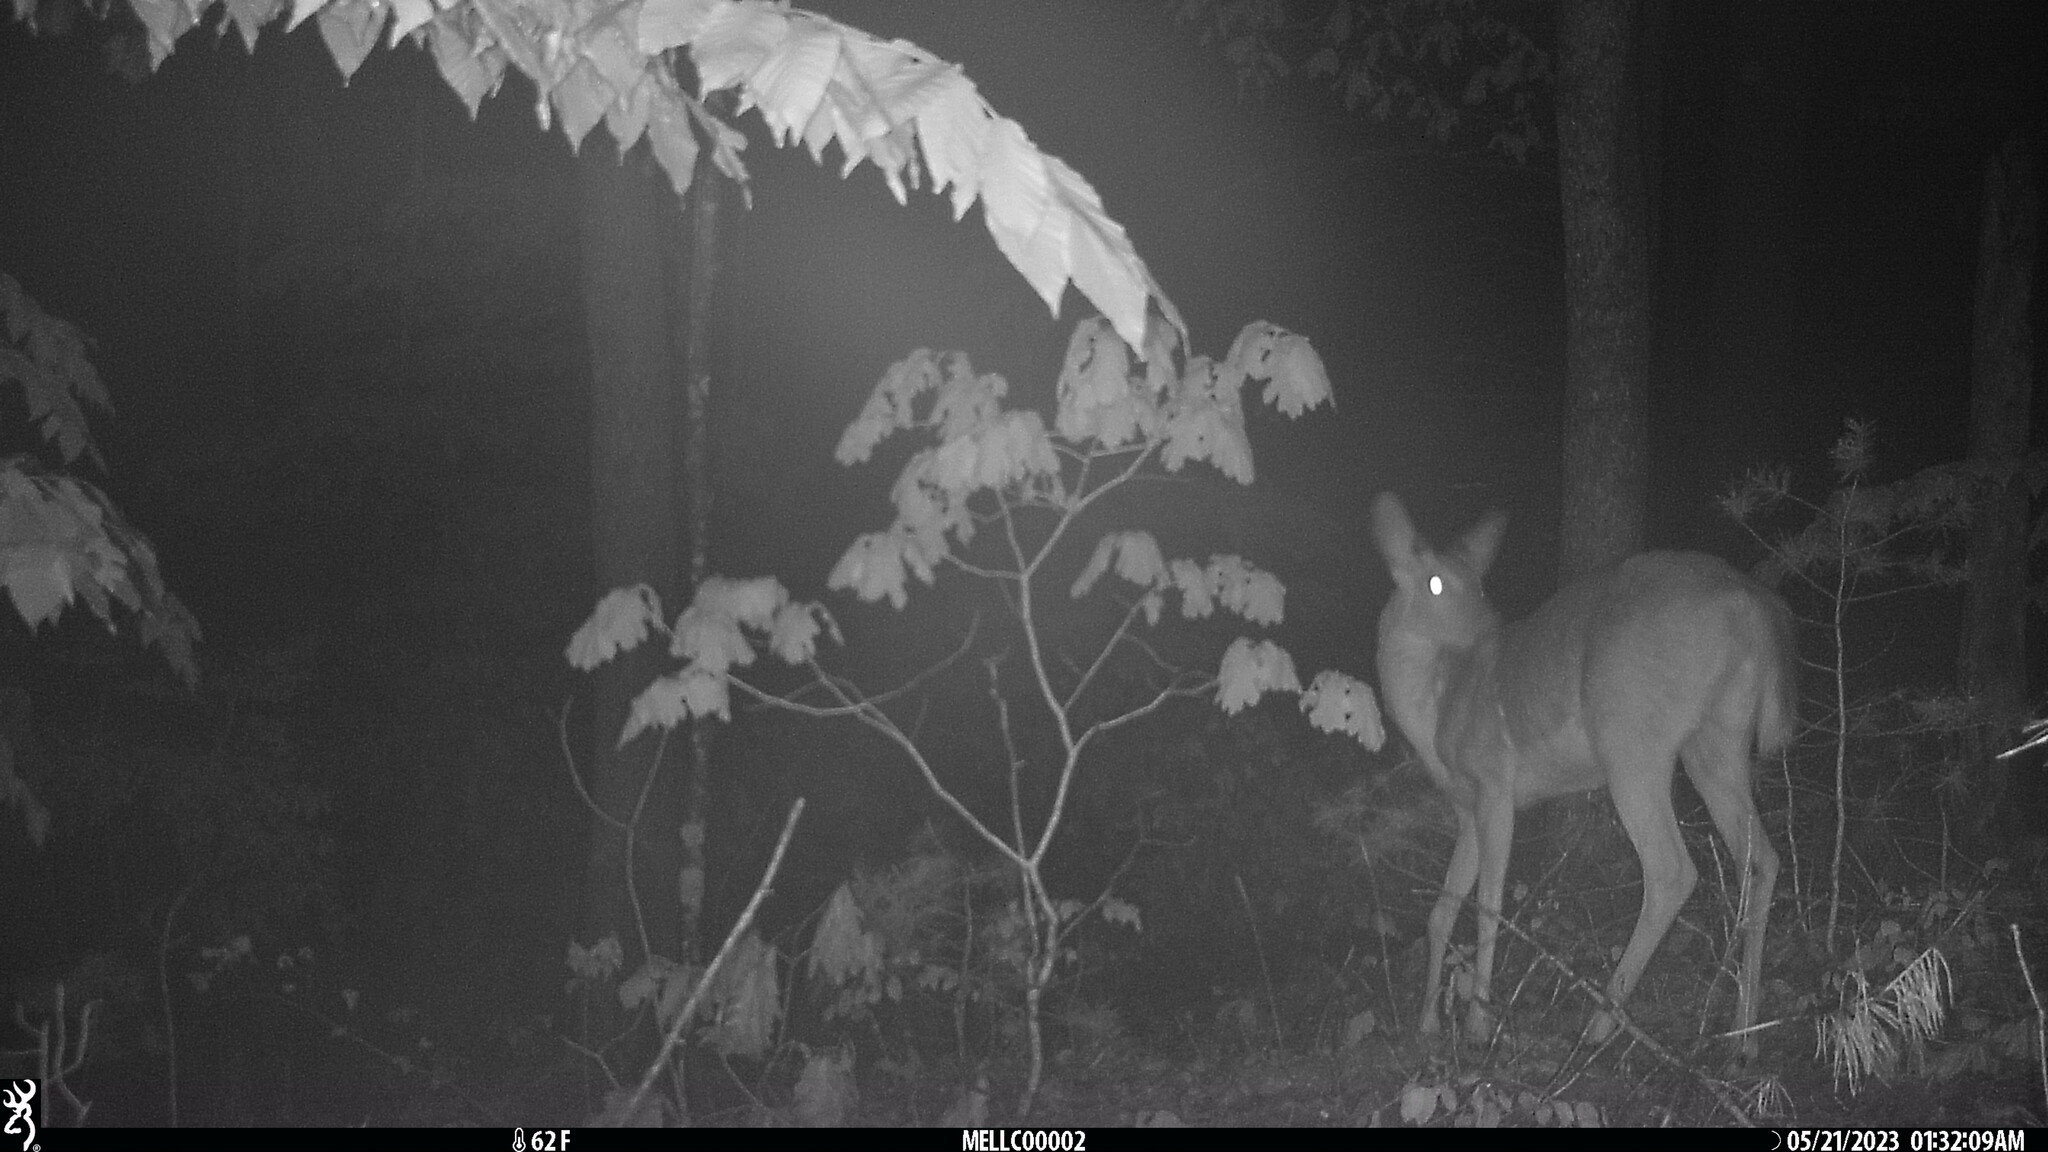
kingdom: Animalia
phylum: Chordata
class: Mammalia
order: Artiodactyla
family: Cervidae
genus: Odocoileus
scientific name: Odocoileus virginianus
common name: White-tailed deer
